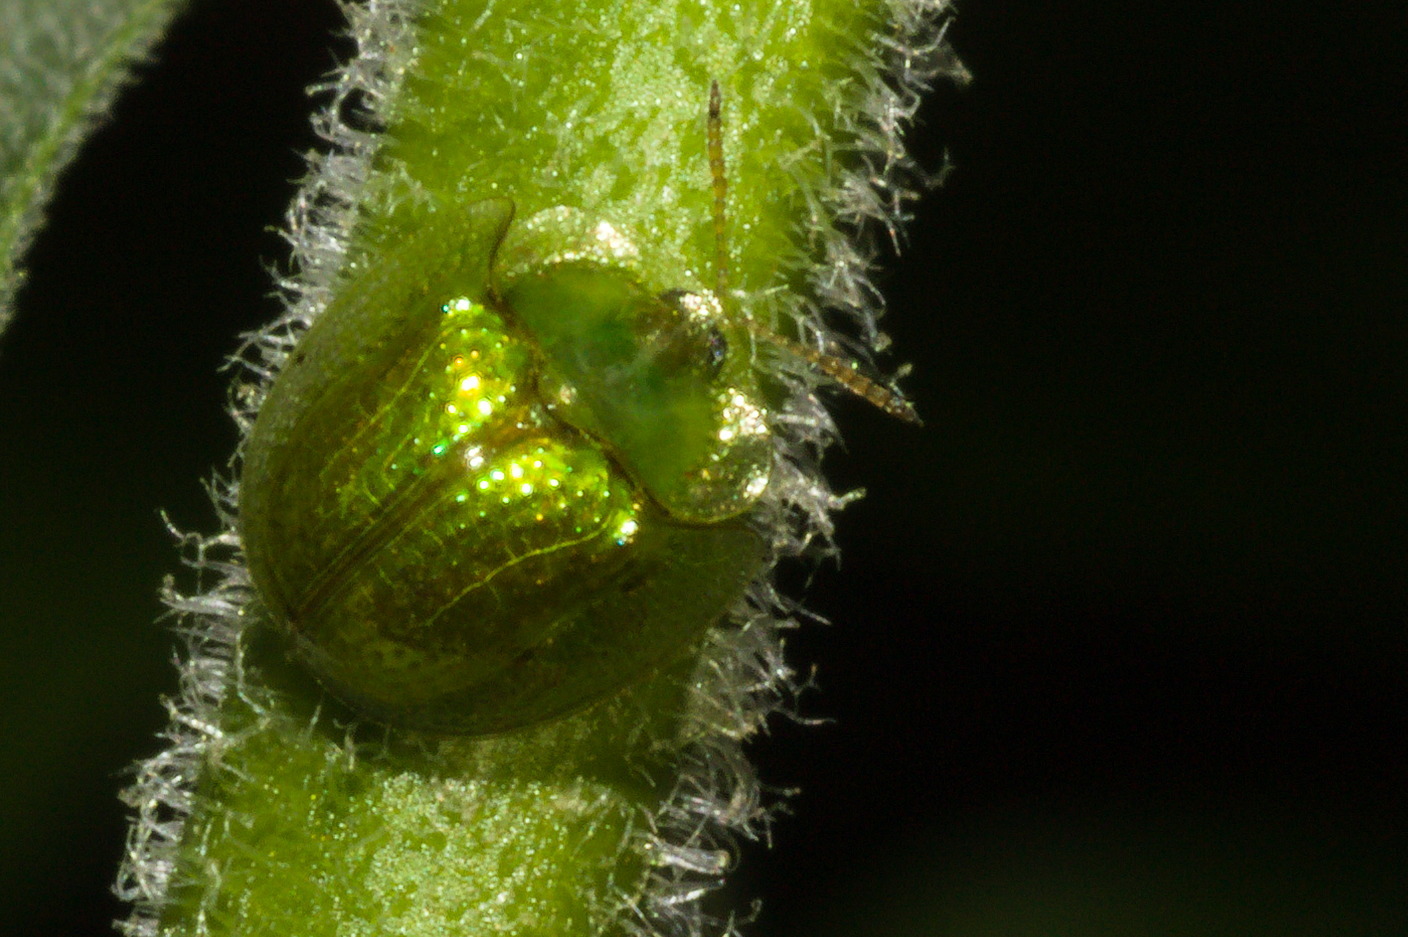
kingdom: Animalia
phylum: Arthropoda
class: Insecta
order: Coleoptera
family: Chrysomelidae
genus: Plagiometriona
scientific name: Plagiometriona herbea
